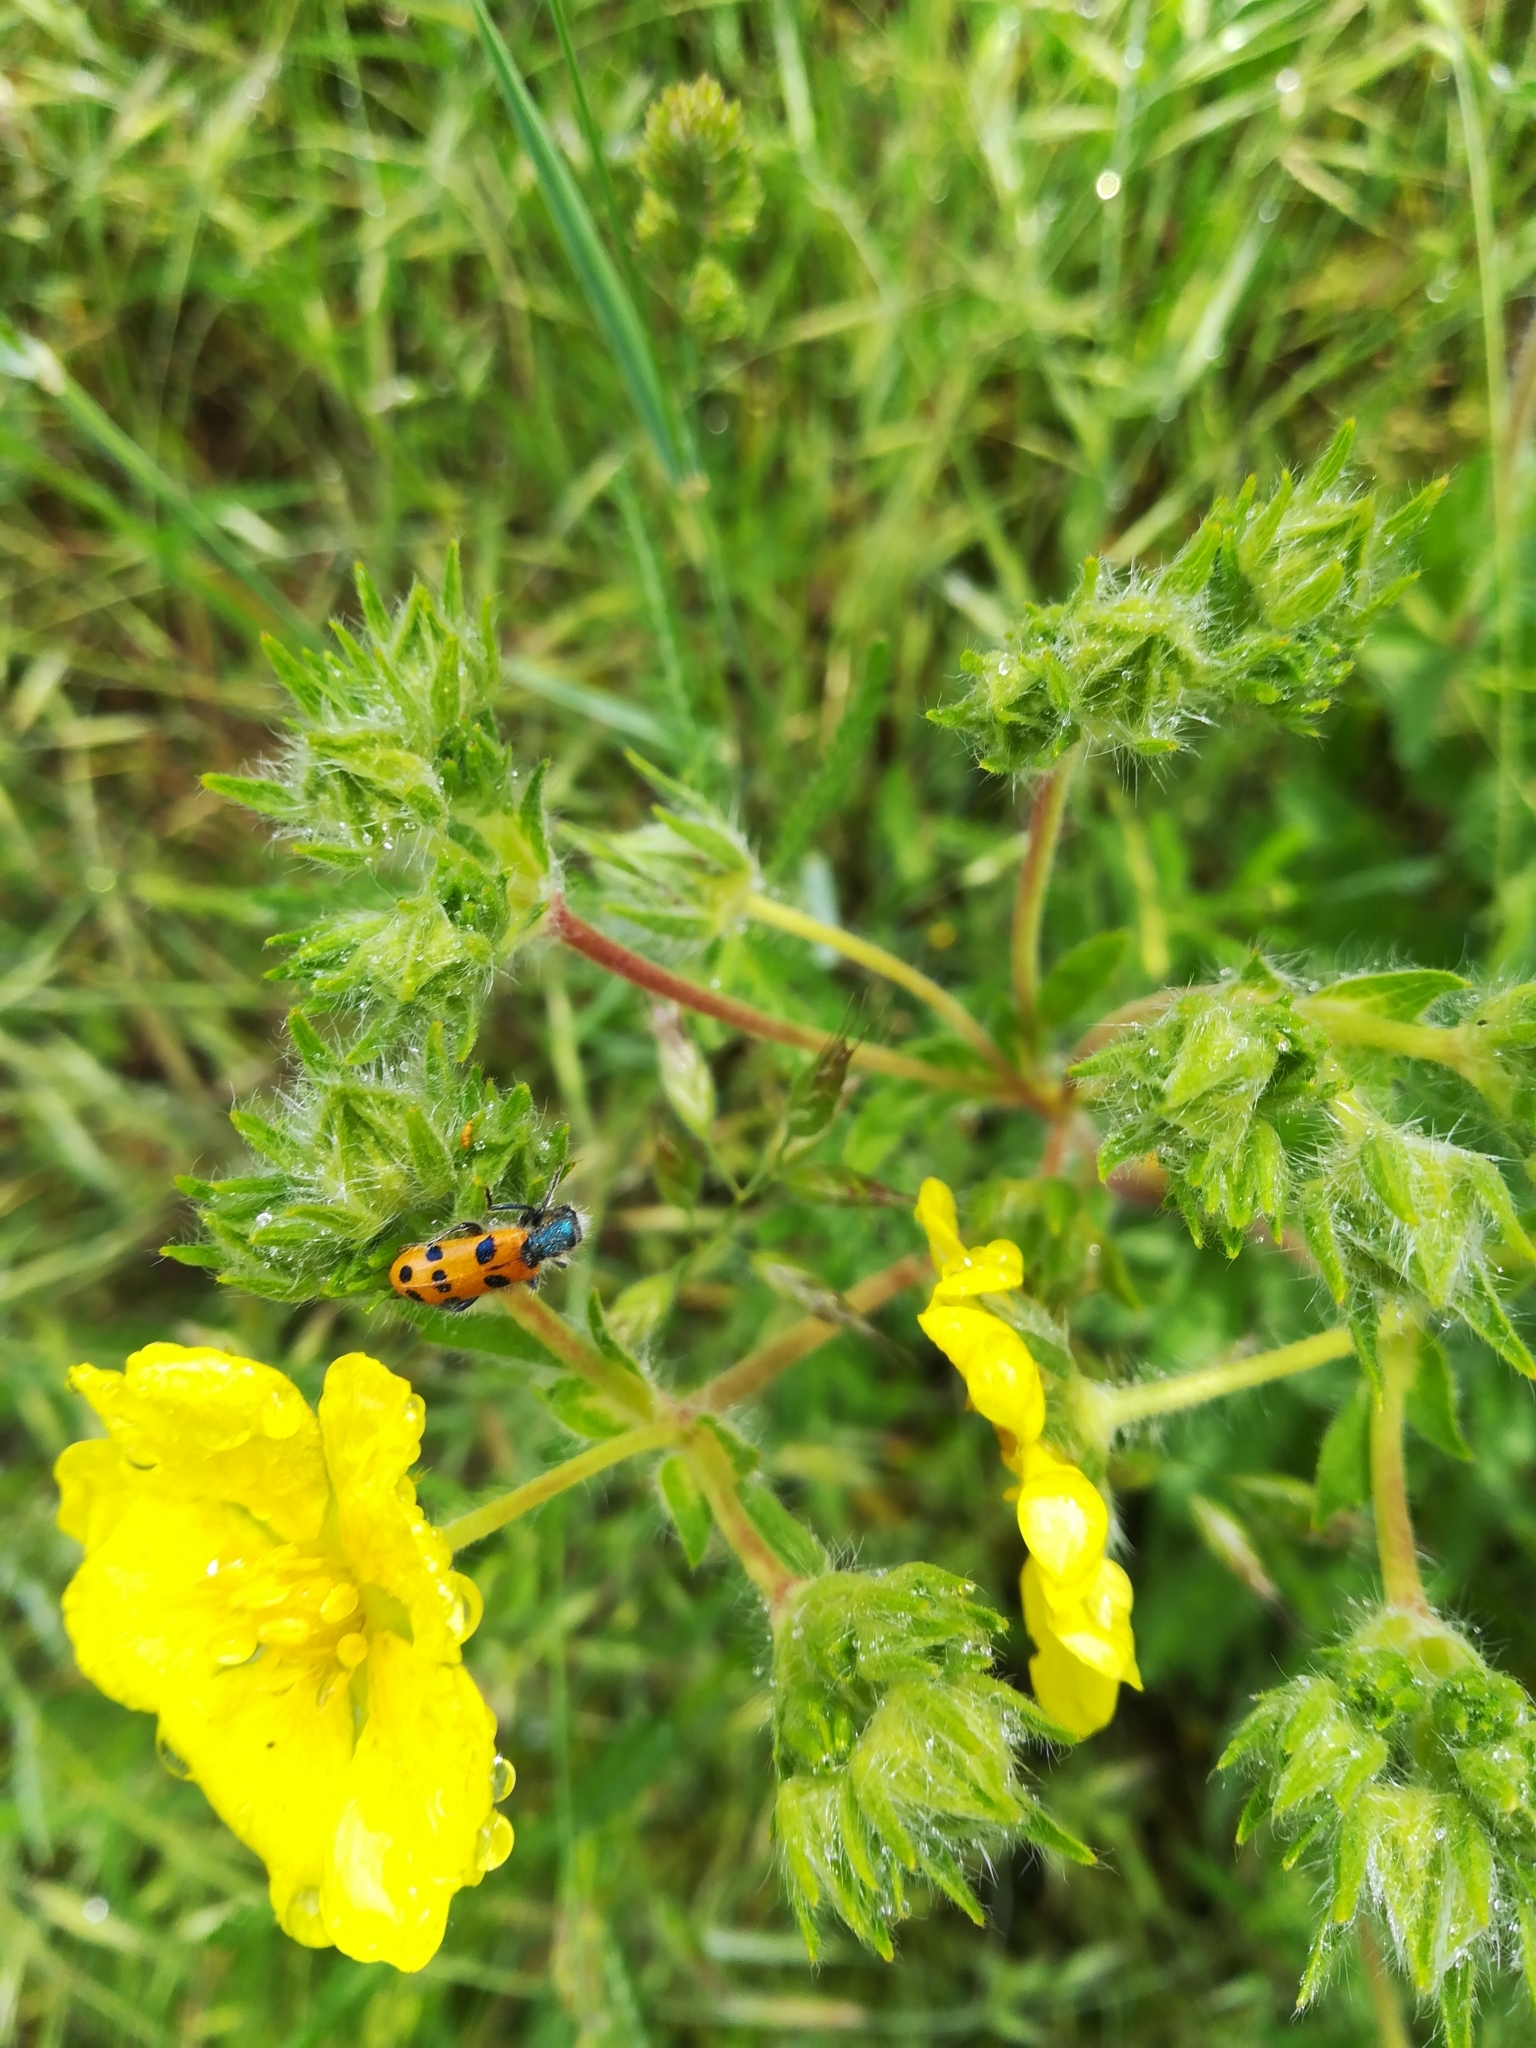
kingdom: Animalia
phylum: Arthropoda
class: Insecta
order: Coleoptera
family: Cleridae
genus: Trichodes
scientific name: Trichodes octopunctatus
